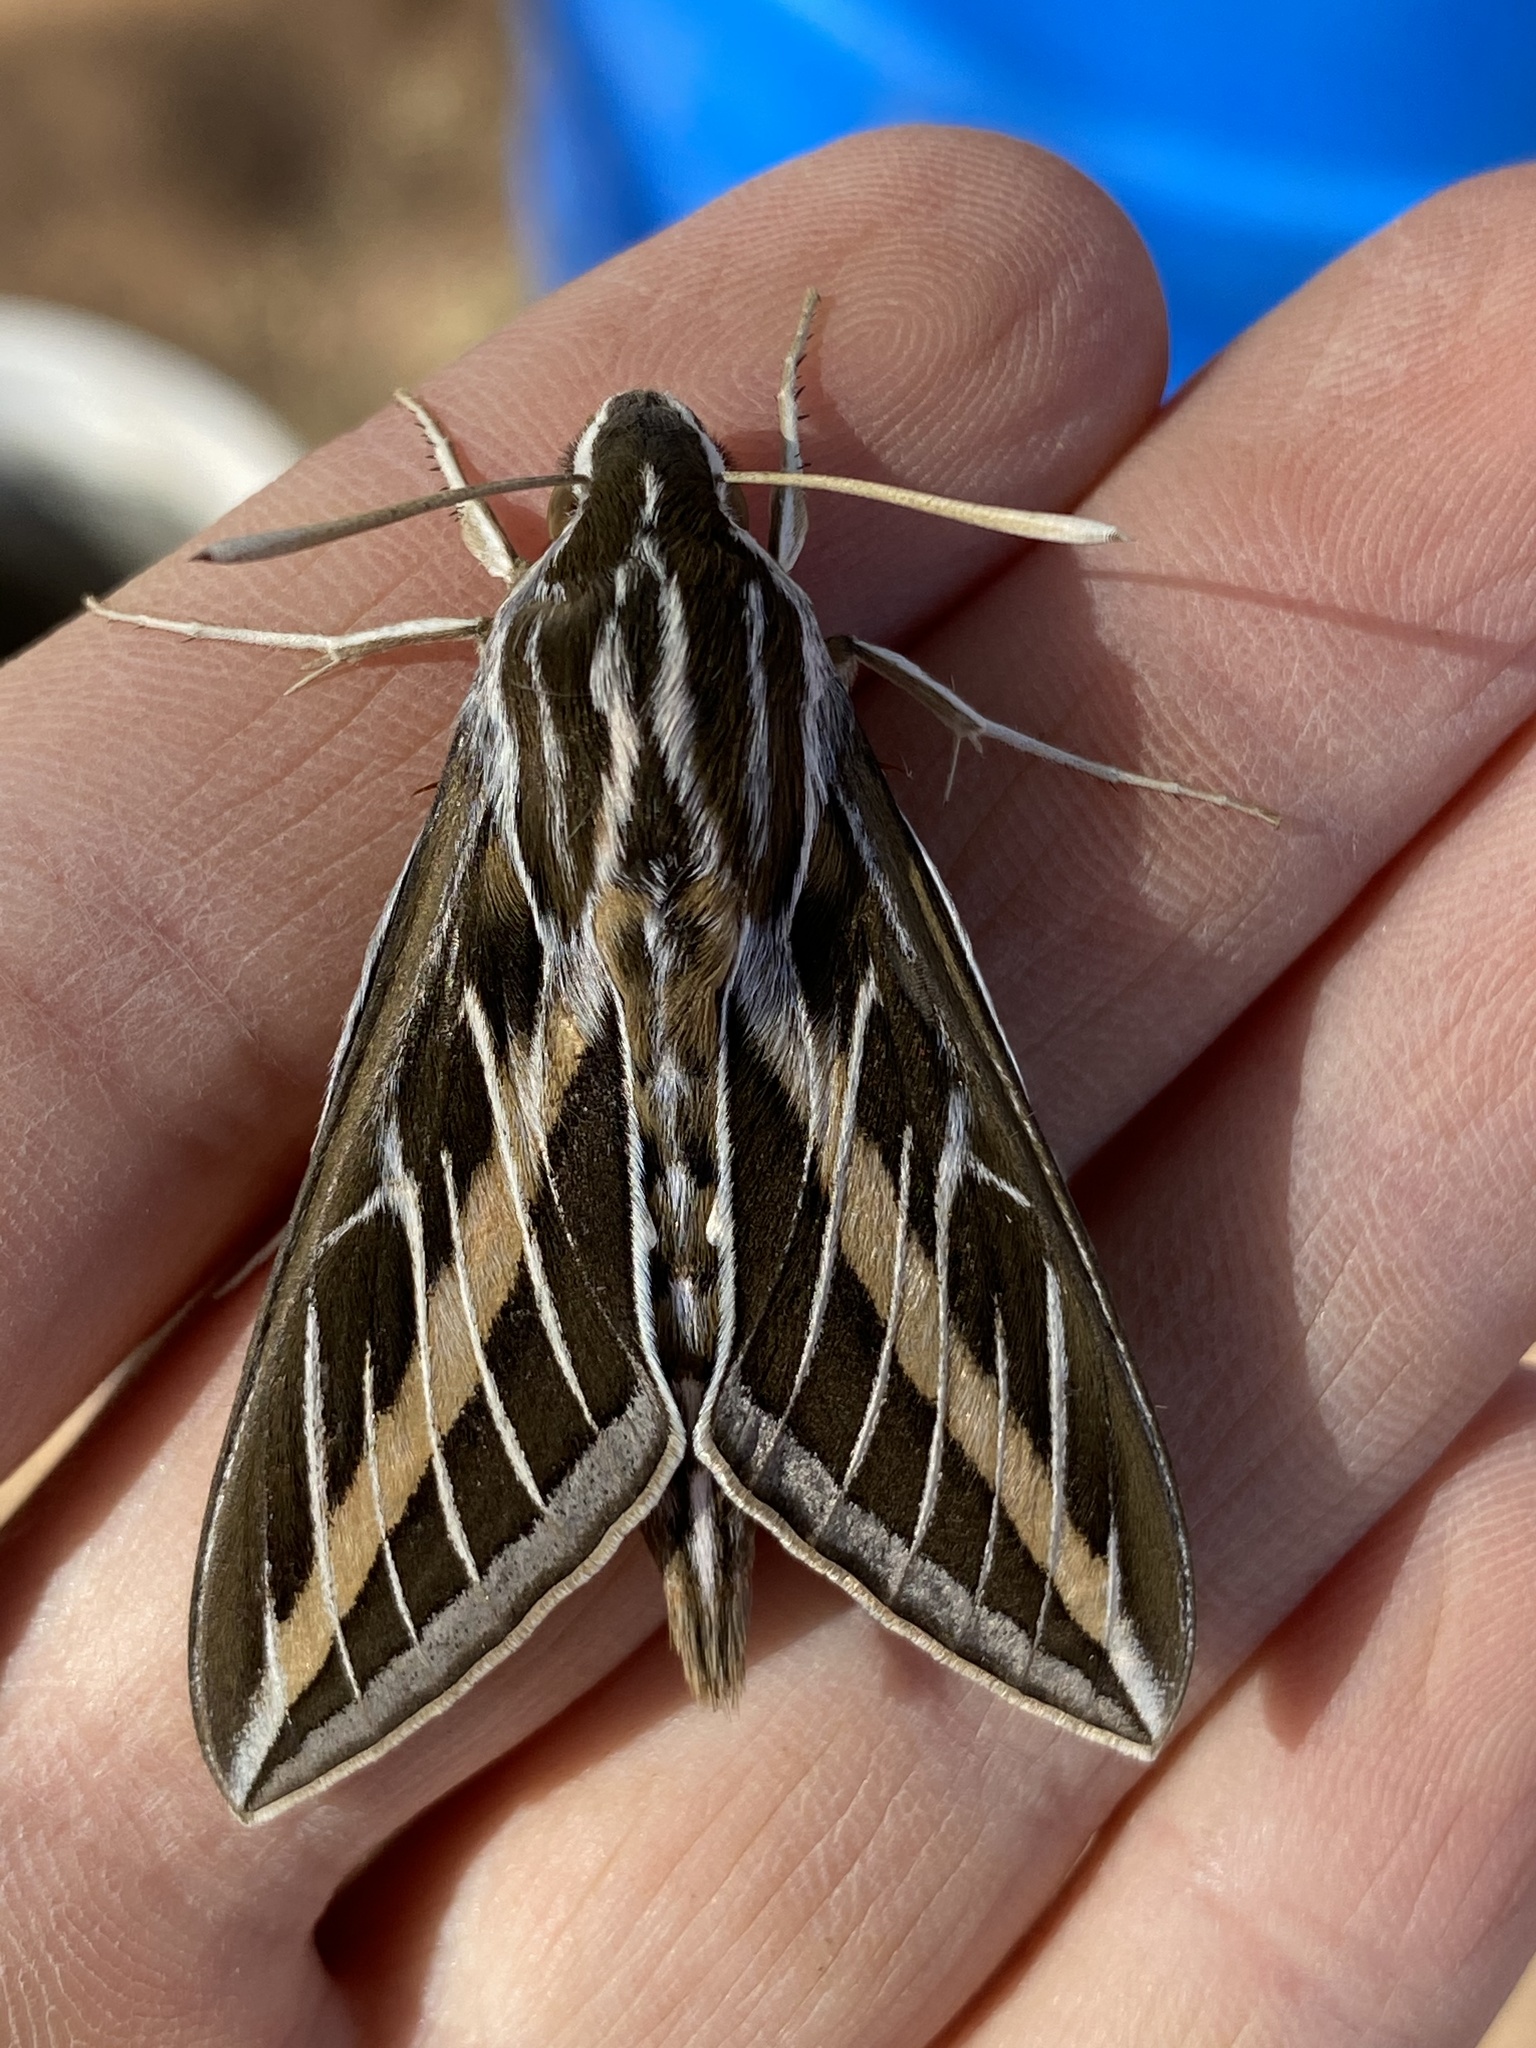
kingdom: Animalia
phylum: Arthropoda
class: Insecta
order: Lepidoptera
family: Sphingidae
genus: Hyles
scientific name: Hyles lineata
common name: White-lined sphinx
